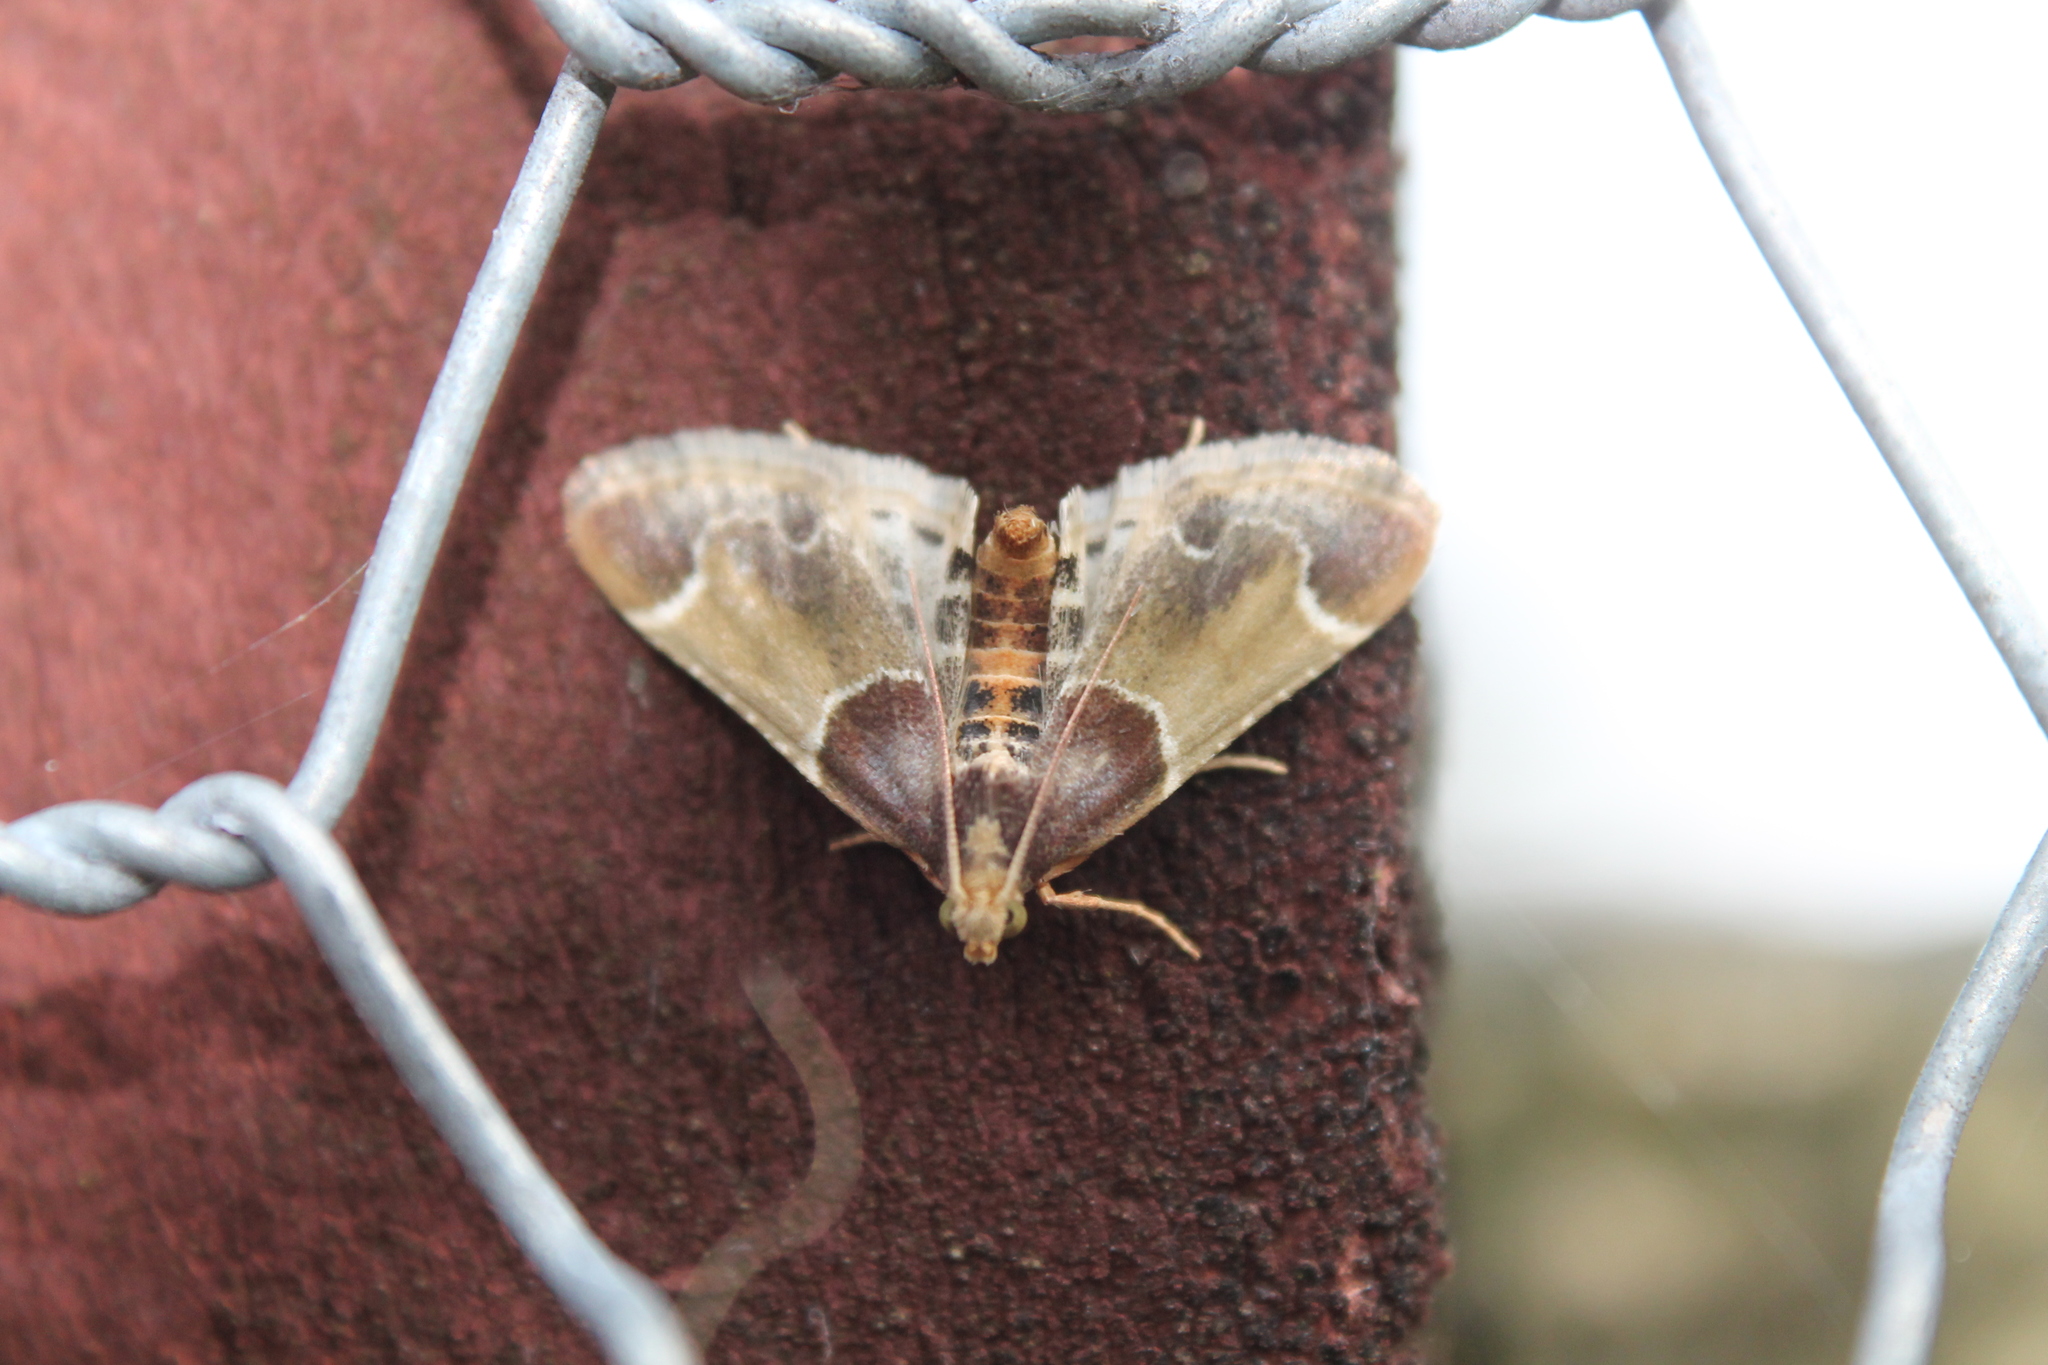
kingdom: Animalia
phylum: Arthropoda
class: Insecta
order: Lepidoptera
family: Pyralidae
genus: Pyralis
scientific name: Pyralis farinalis
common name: Meal moth
